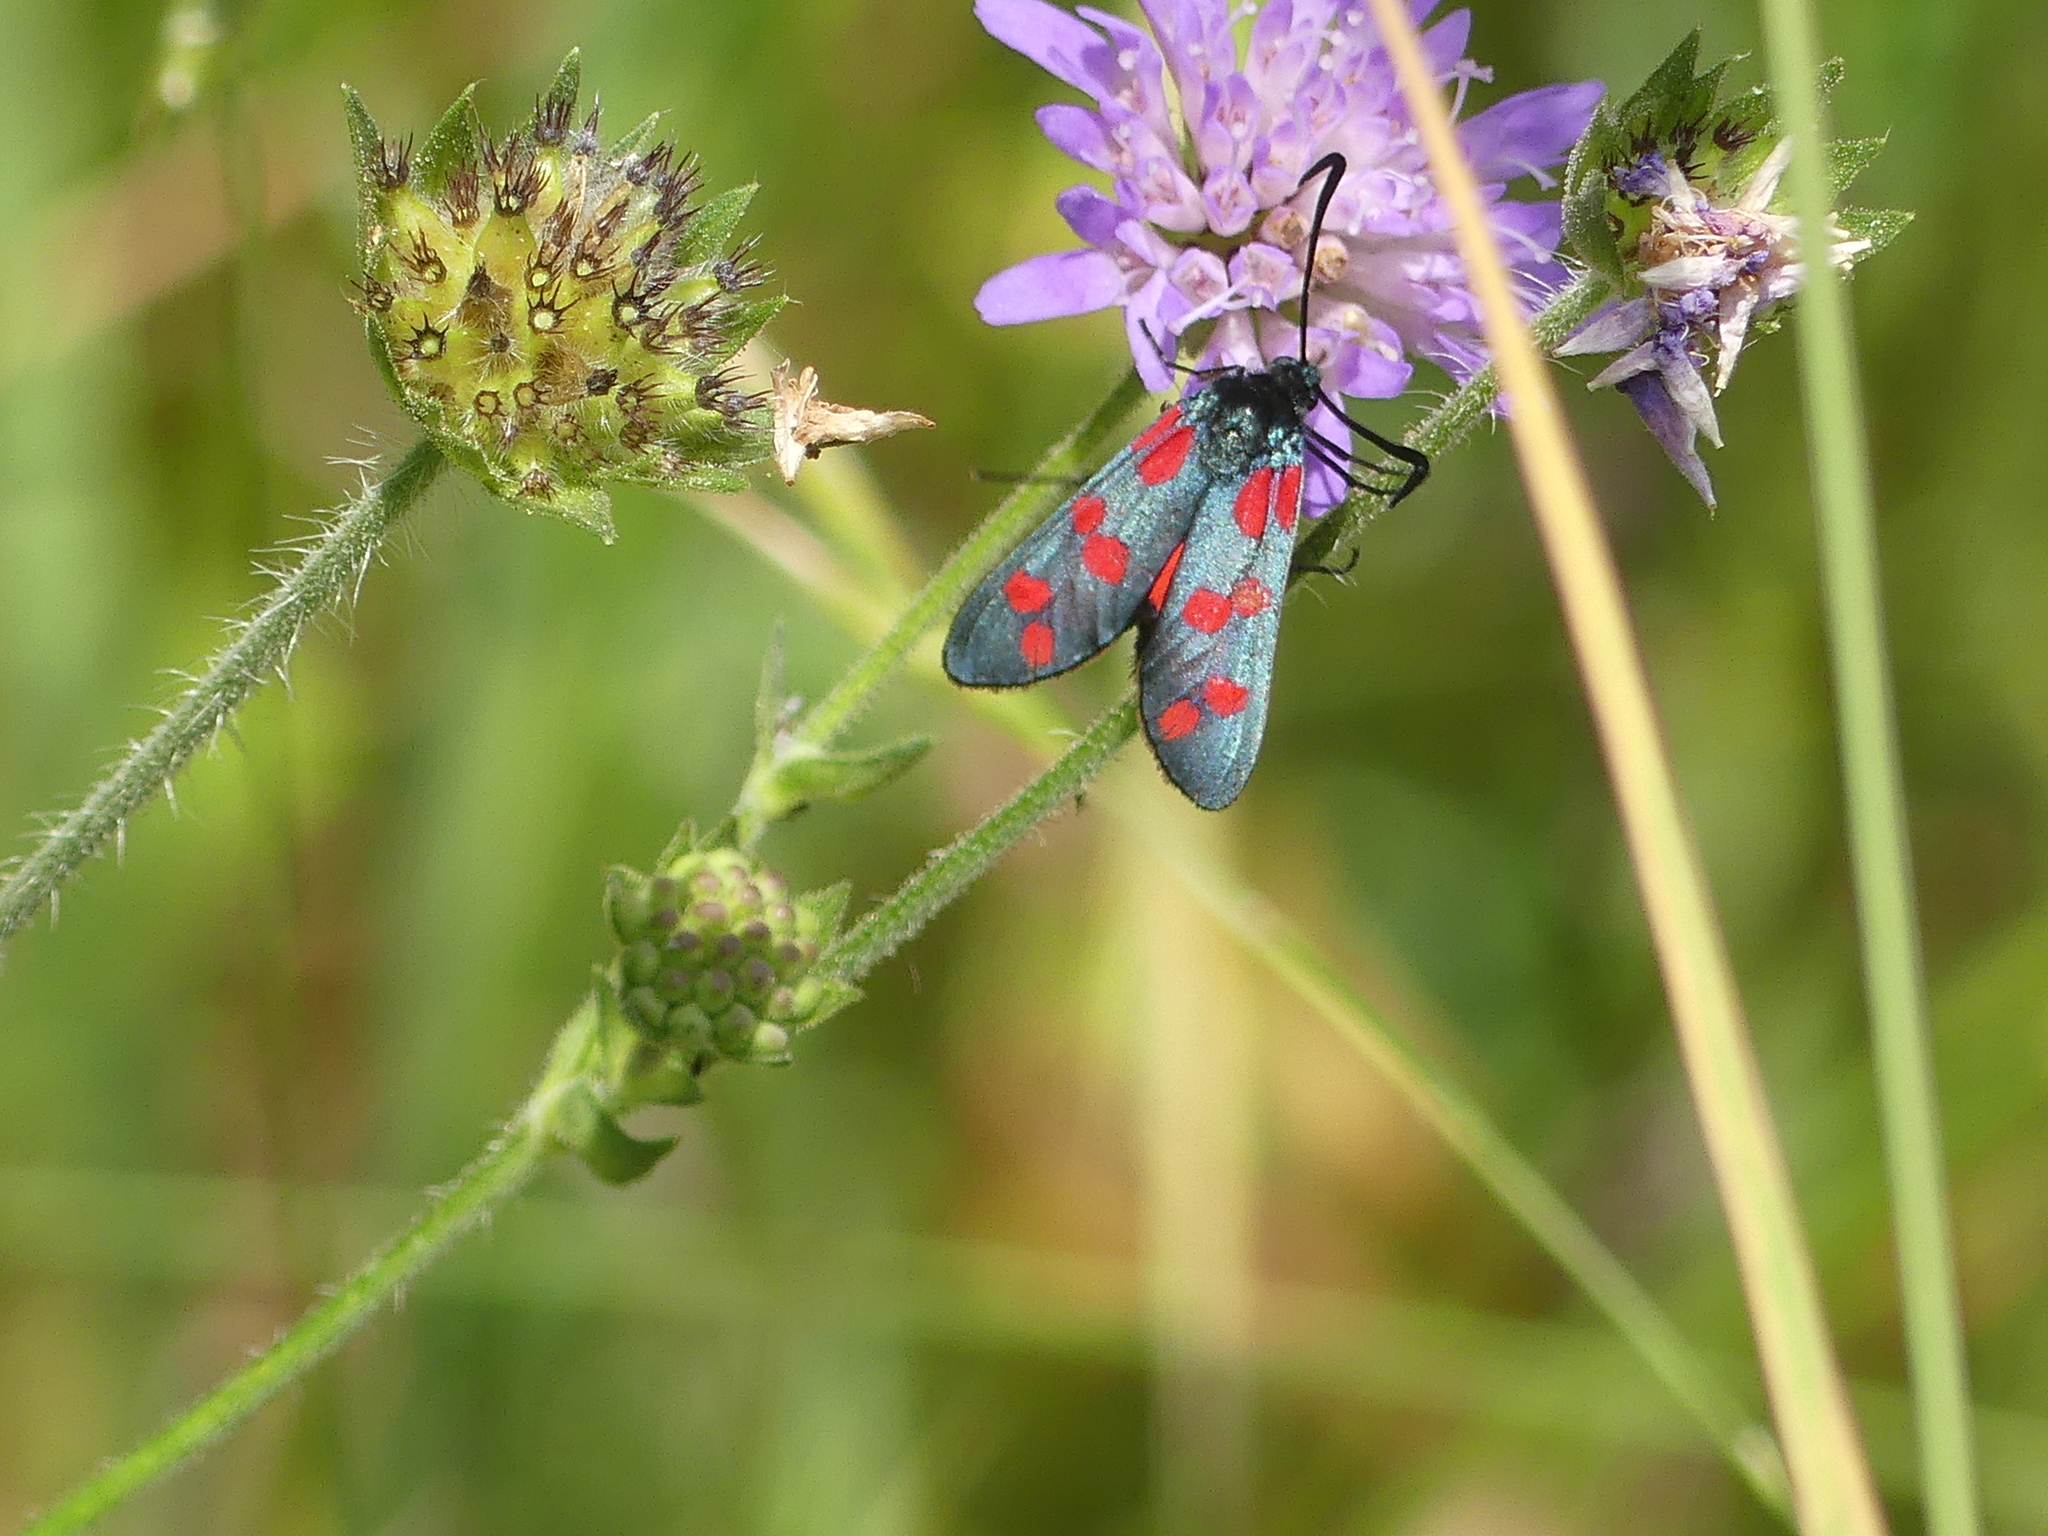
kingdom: Animalia
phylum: Arthropoda
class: Insecta
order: Lepidoptera
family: Zygaenidae
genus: Zygaena
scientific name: Zygaena filipendulae
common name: Six-spot burnet
